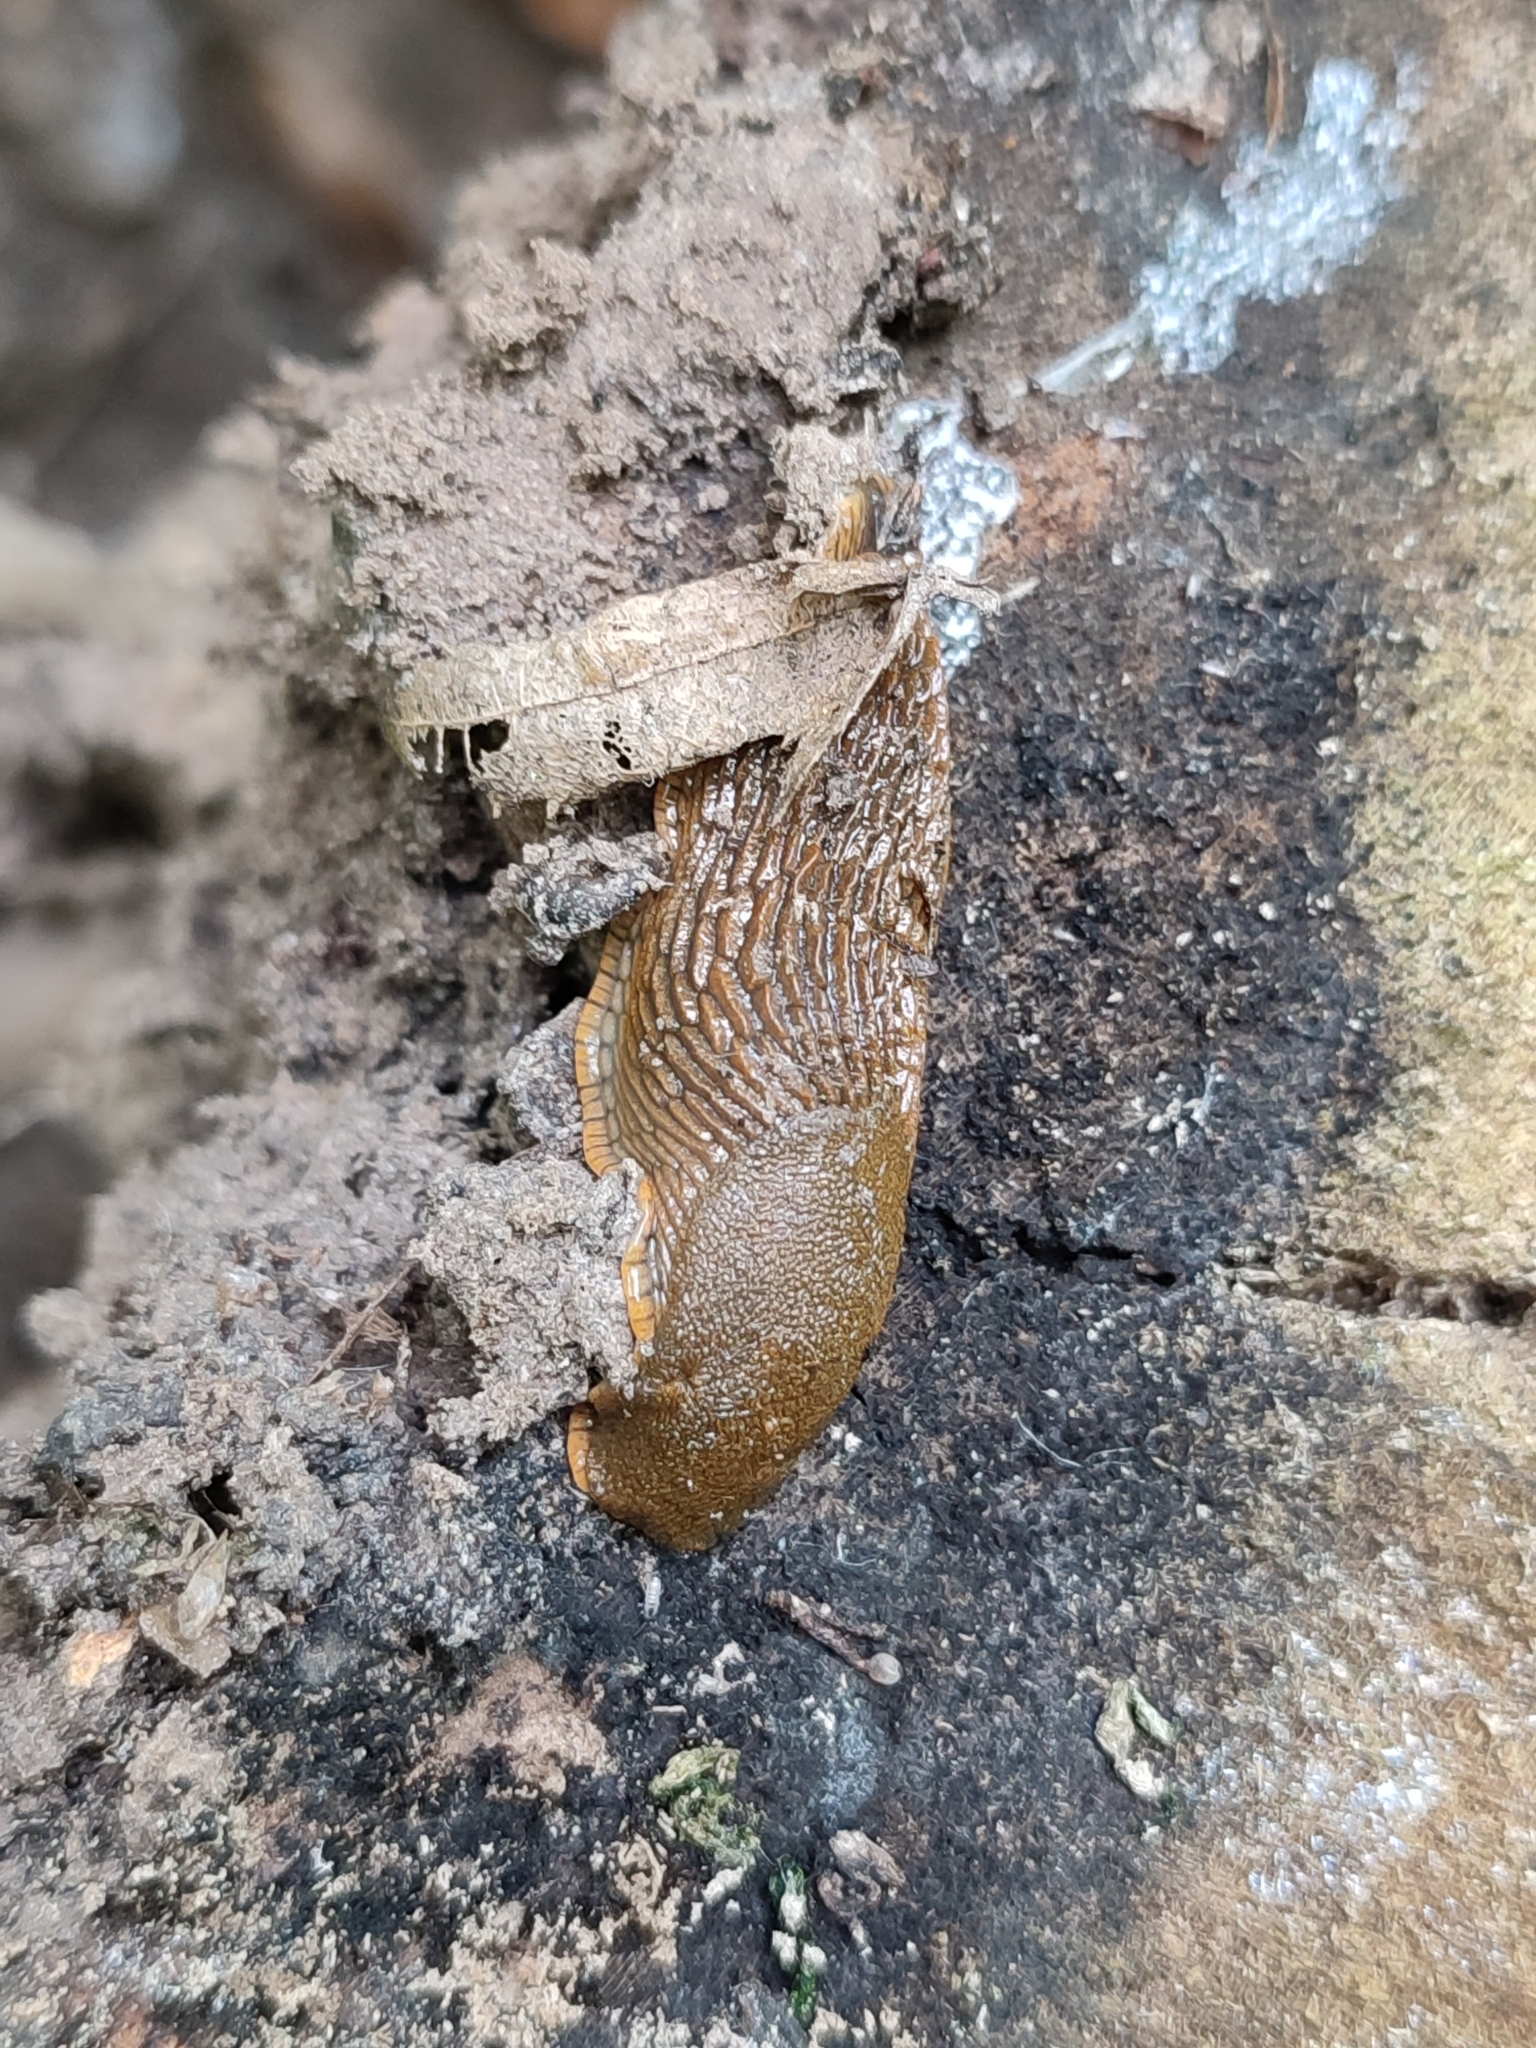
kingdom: Animalia
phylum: Mollusca
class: Gastropoda
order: Stylommatophora
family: Arionidae
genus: Arion
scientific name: Arion vulgaris
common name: Lusitanian slug
